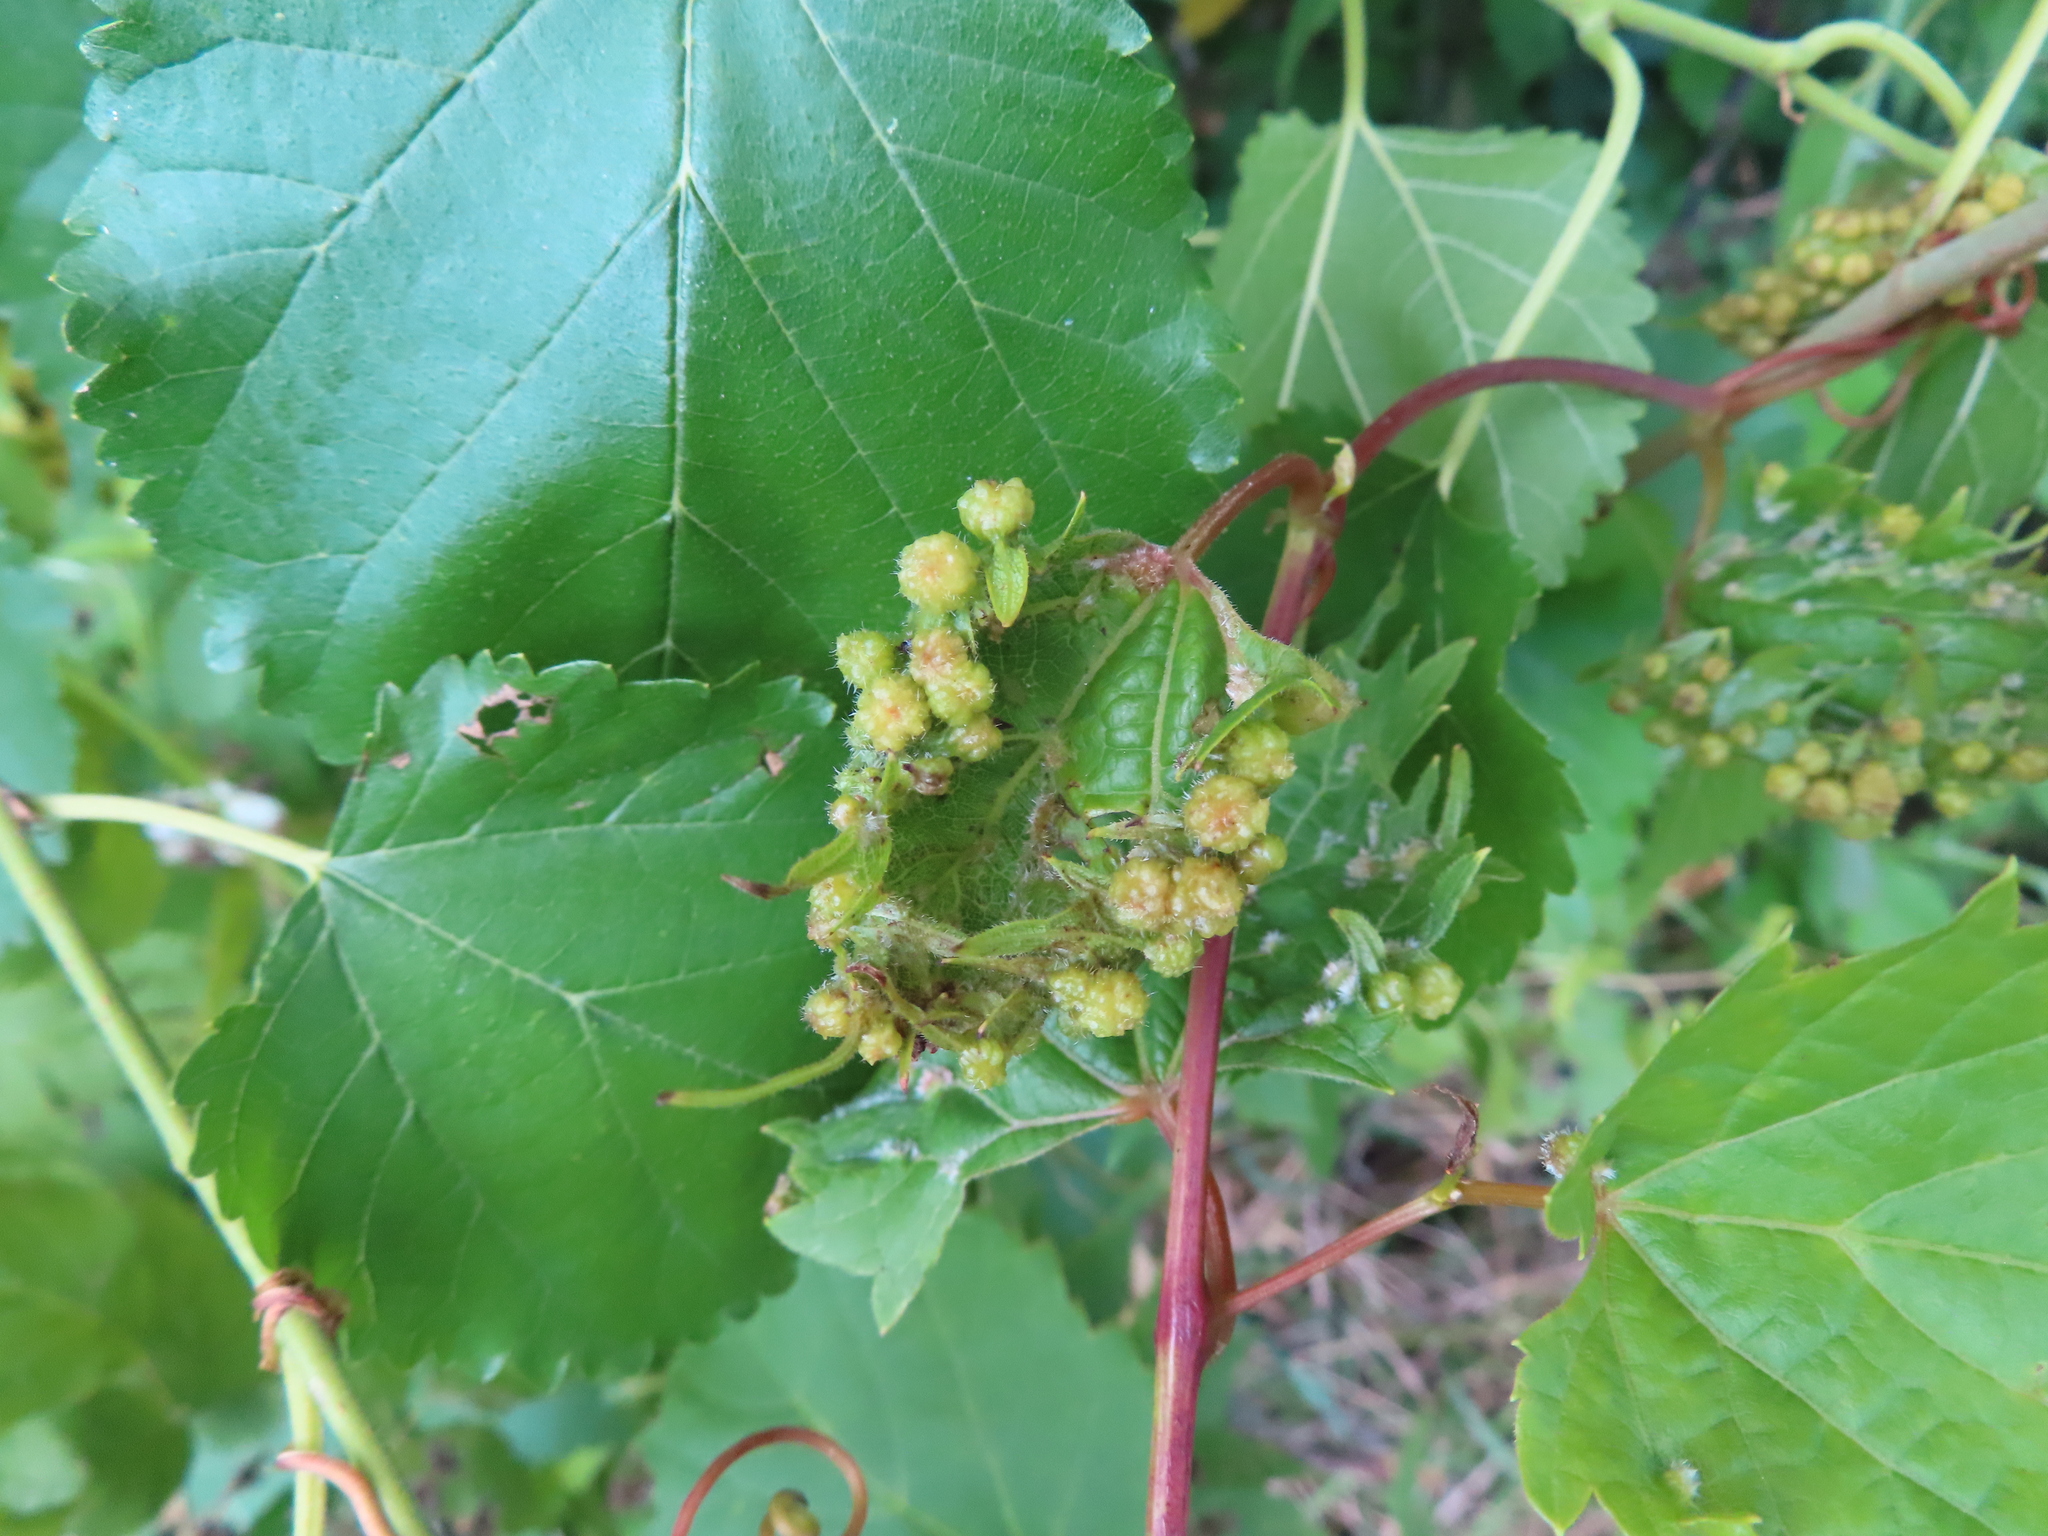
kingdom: Animalia
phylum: Arthropoda
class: Insecta
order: Hemiptera
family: Phylloxeridae
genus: Daktulosphaira
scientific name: Daktulosphaira vitifoliae
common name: Grape phylloxera
